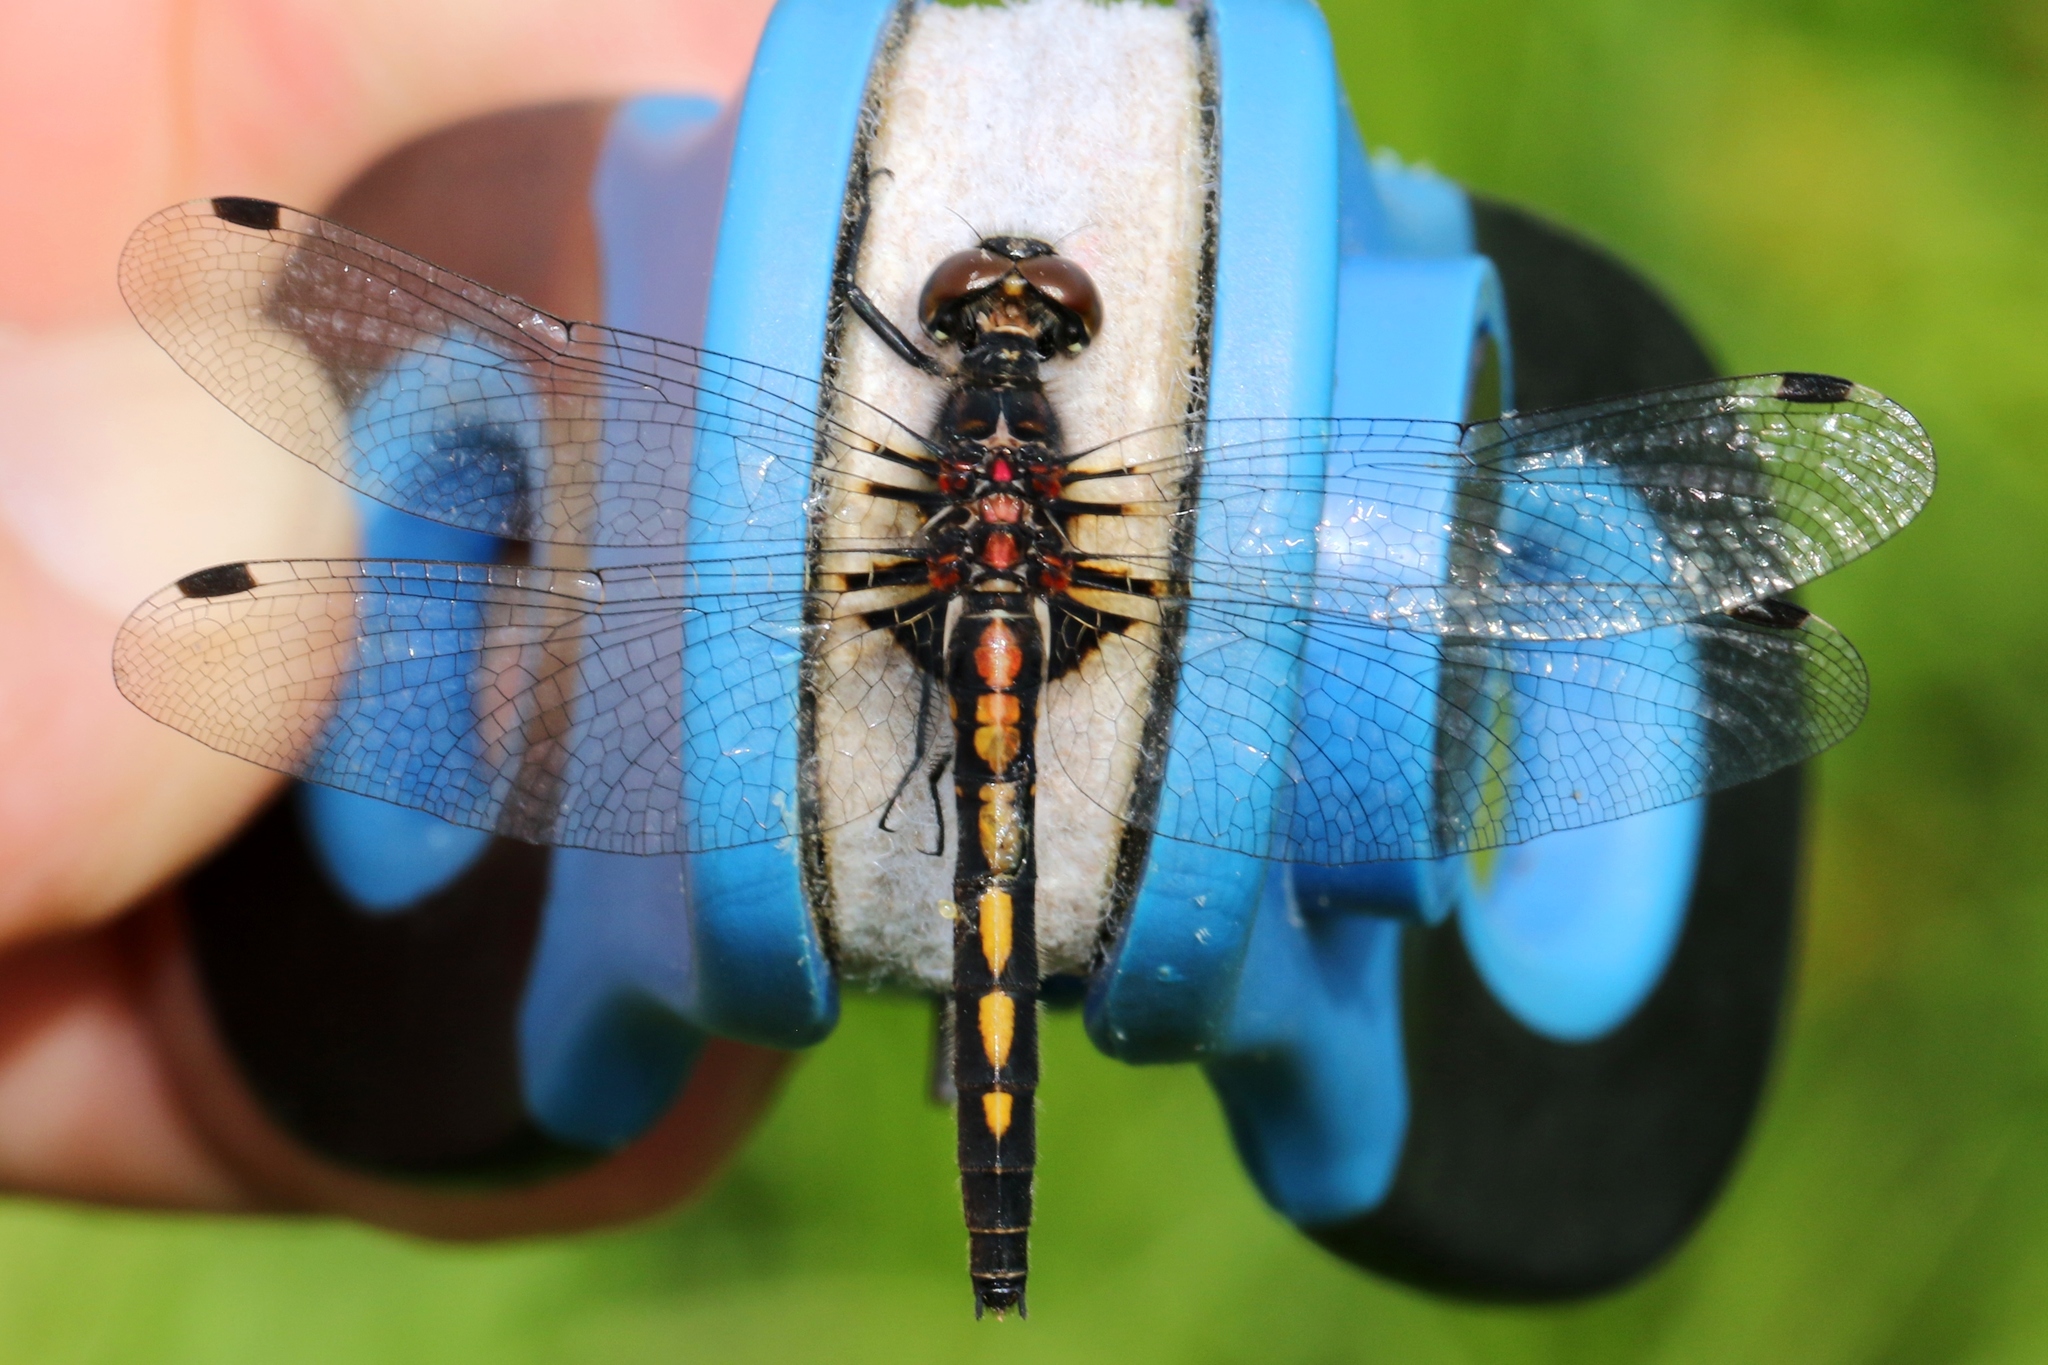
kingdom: Animalia
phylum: Arthropoda
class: Insecta
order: Odonata
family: Libellulidae
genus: Leucorrhinia
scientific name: Leucorrhinia hudsonica
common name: Hudsonian whiteface
